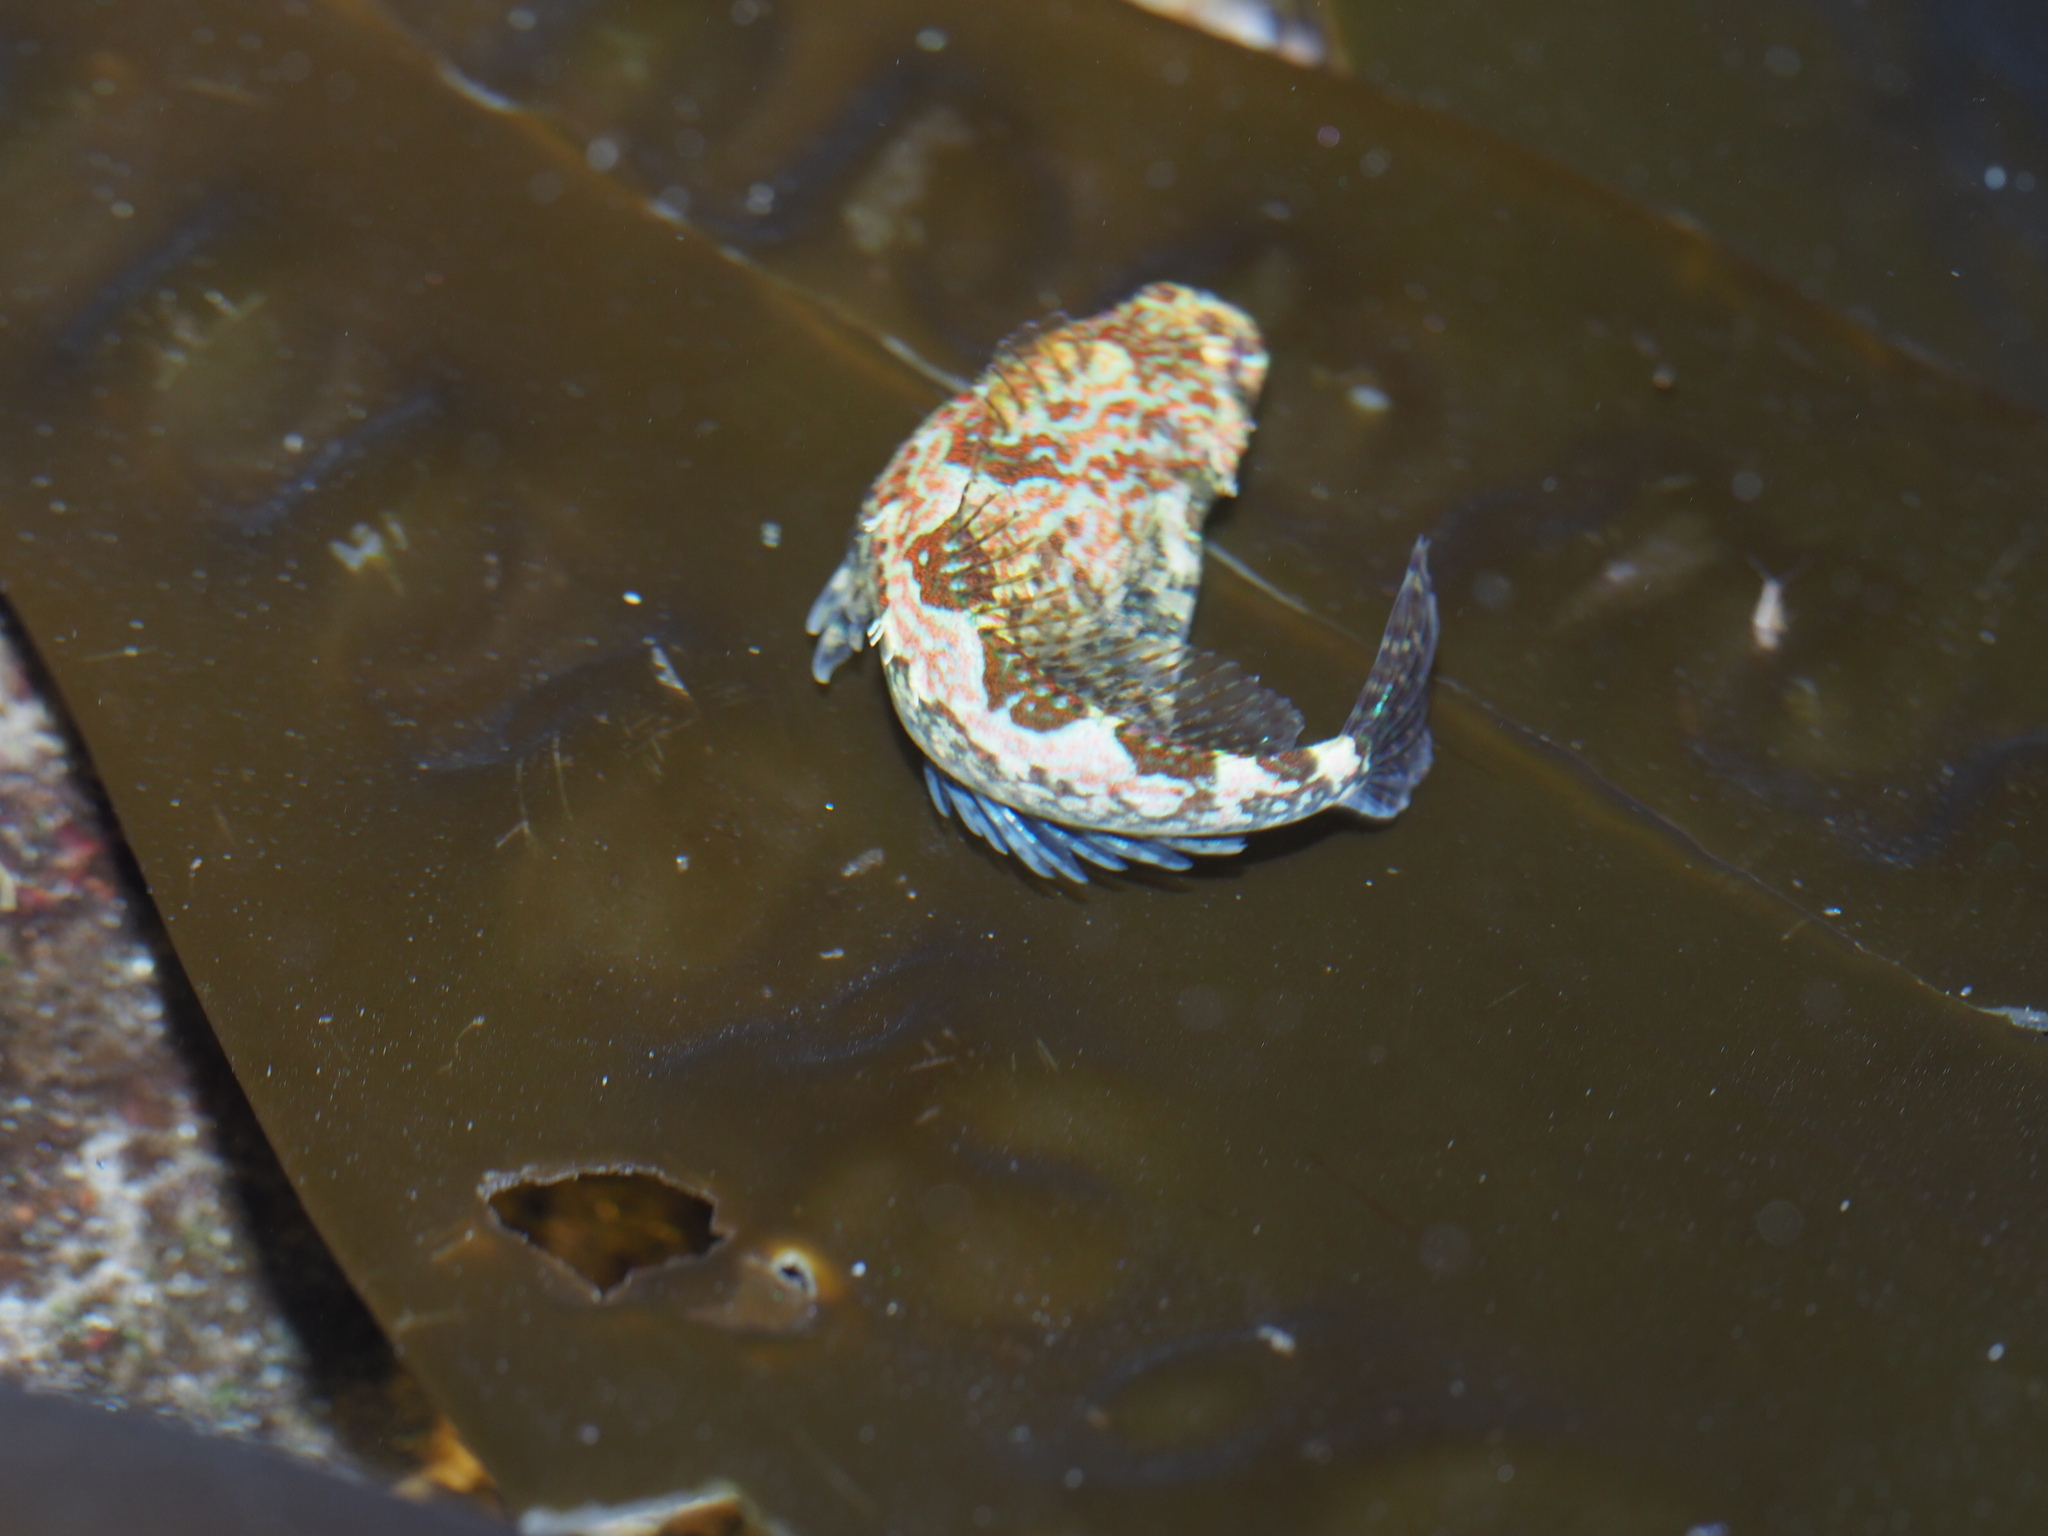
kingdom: Animalia
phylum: Chordata
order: Scorpaeniformes
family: Cottidae
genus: Oligocottus
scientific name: Oligocottus rimensis
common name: Saddleback sculpin
